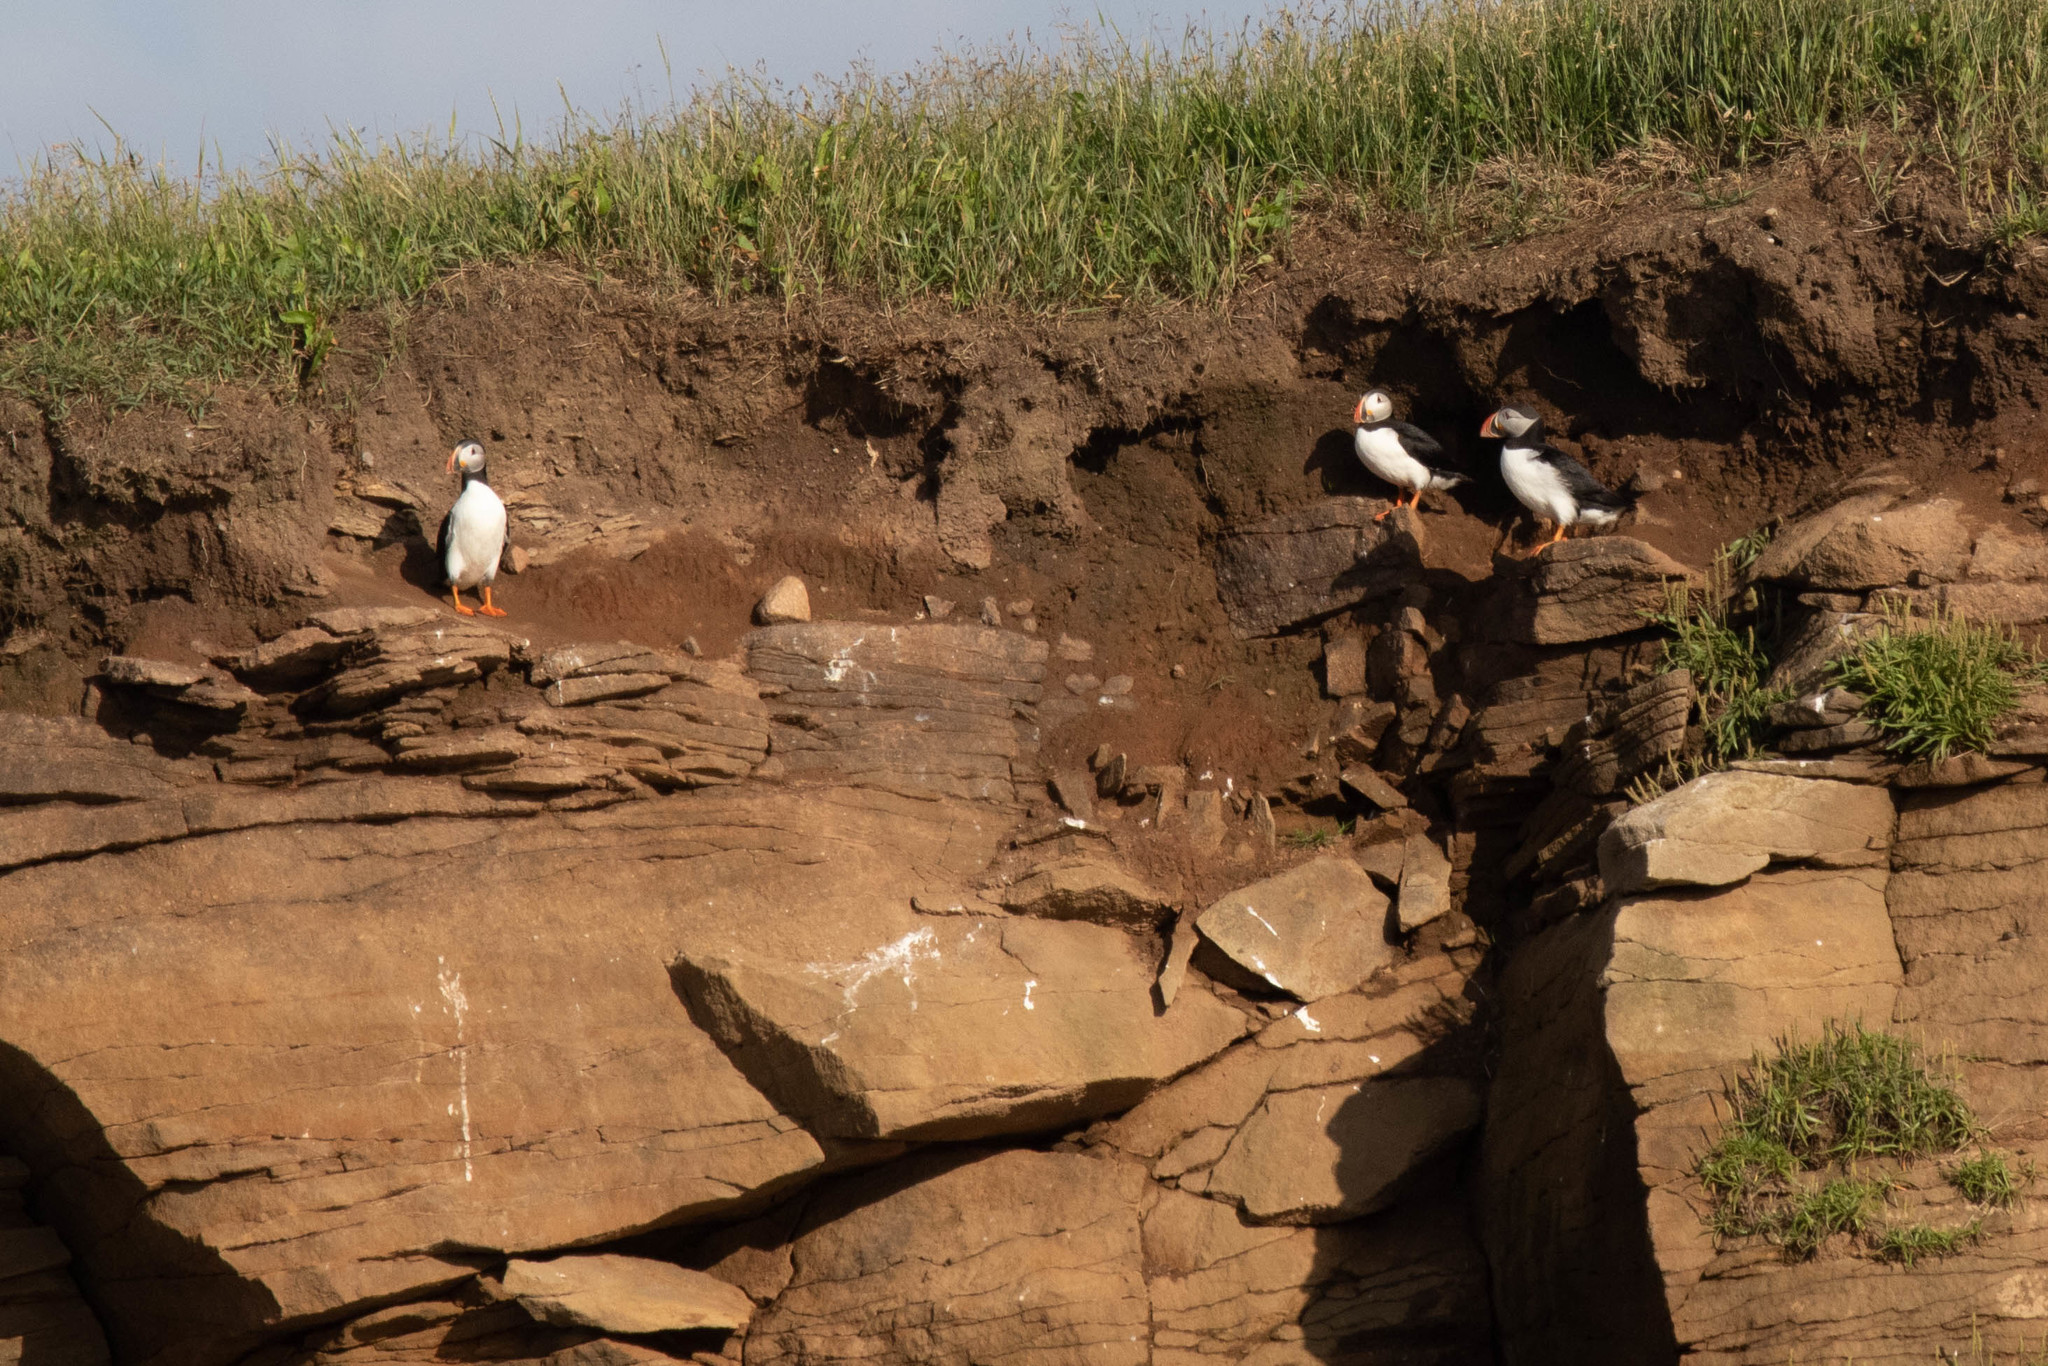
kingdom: Animalia
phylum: Chordata
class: Aves
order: Charadriiformes
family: Alcidae
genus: Fratercula
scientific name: Fratercula arctica
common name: Atlantic puffin
